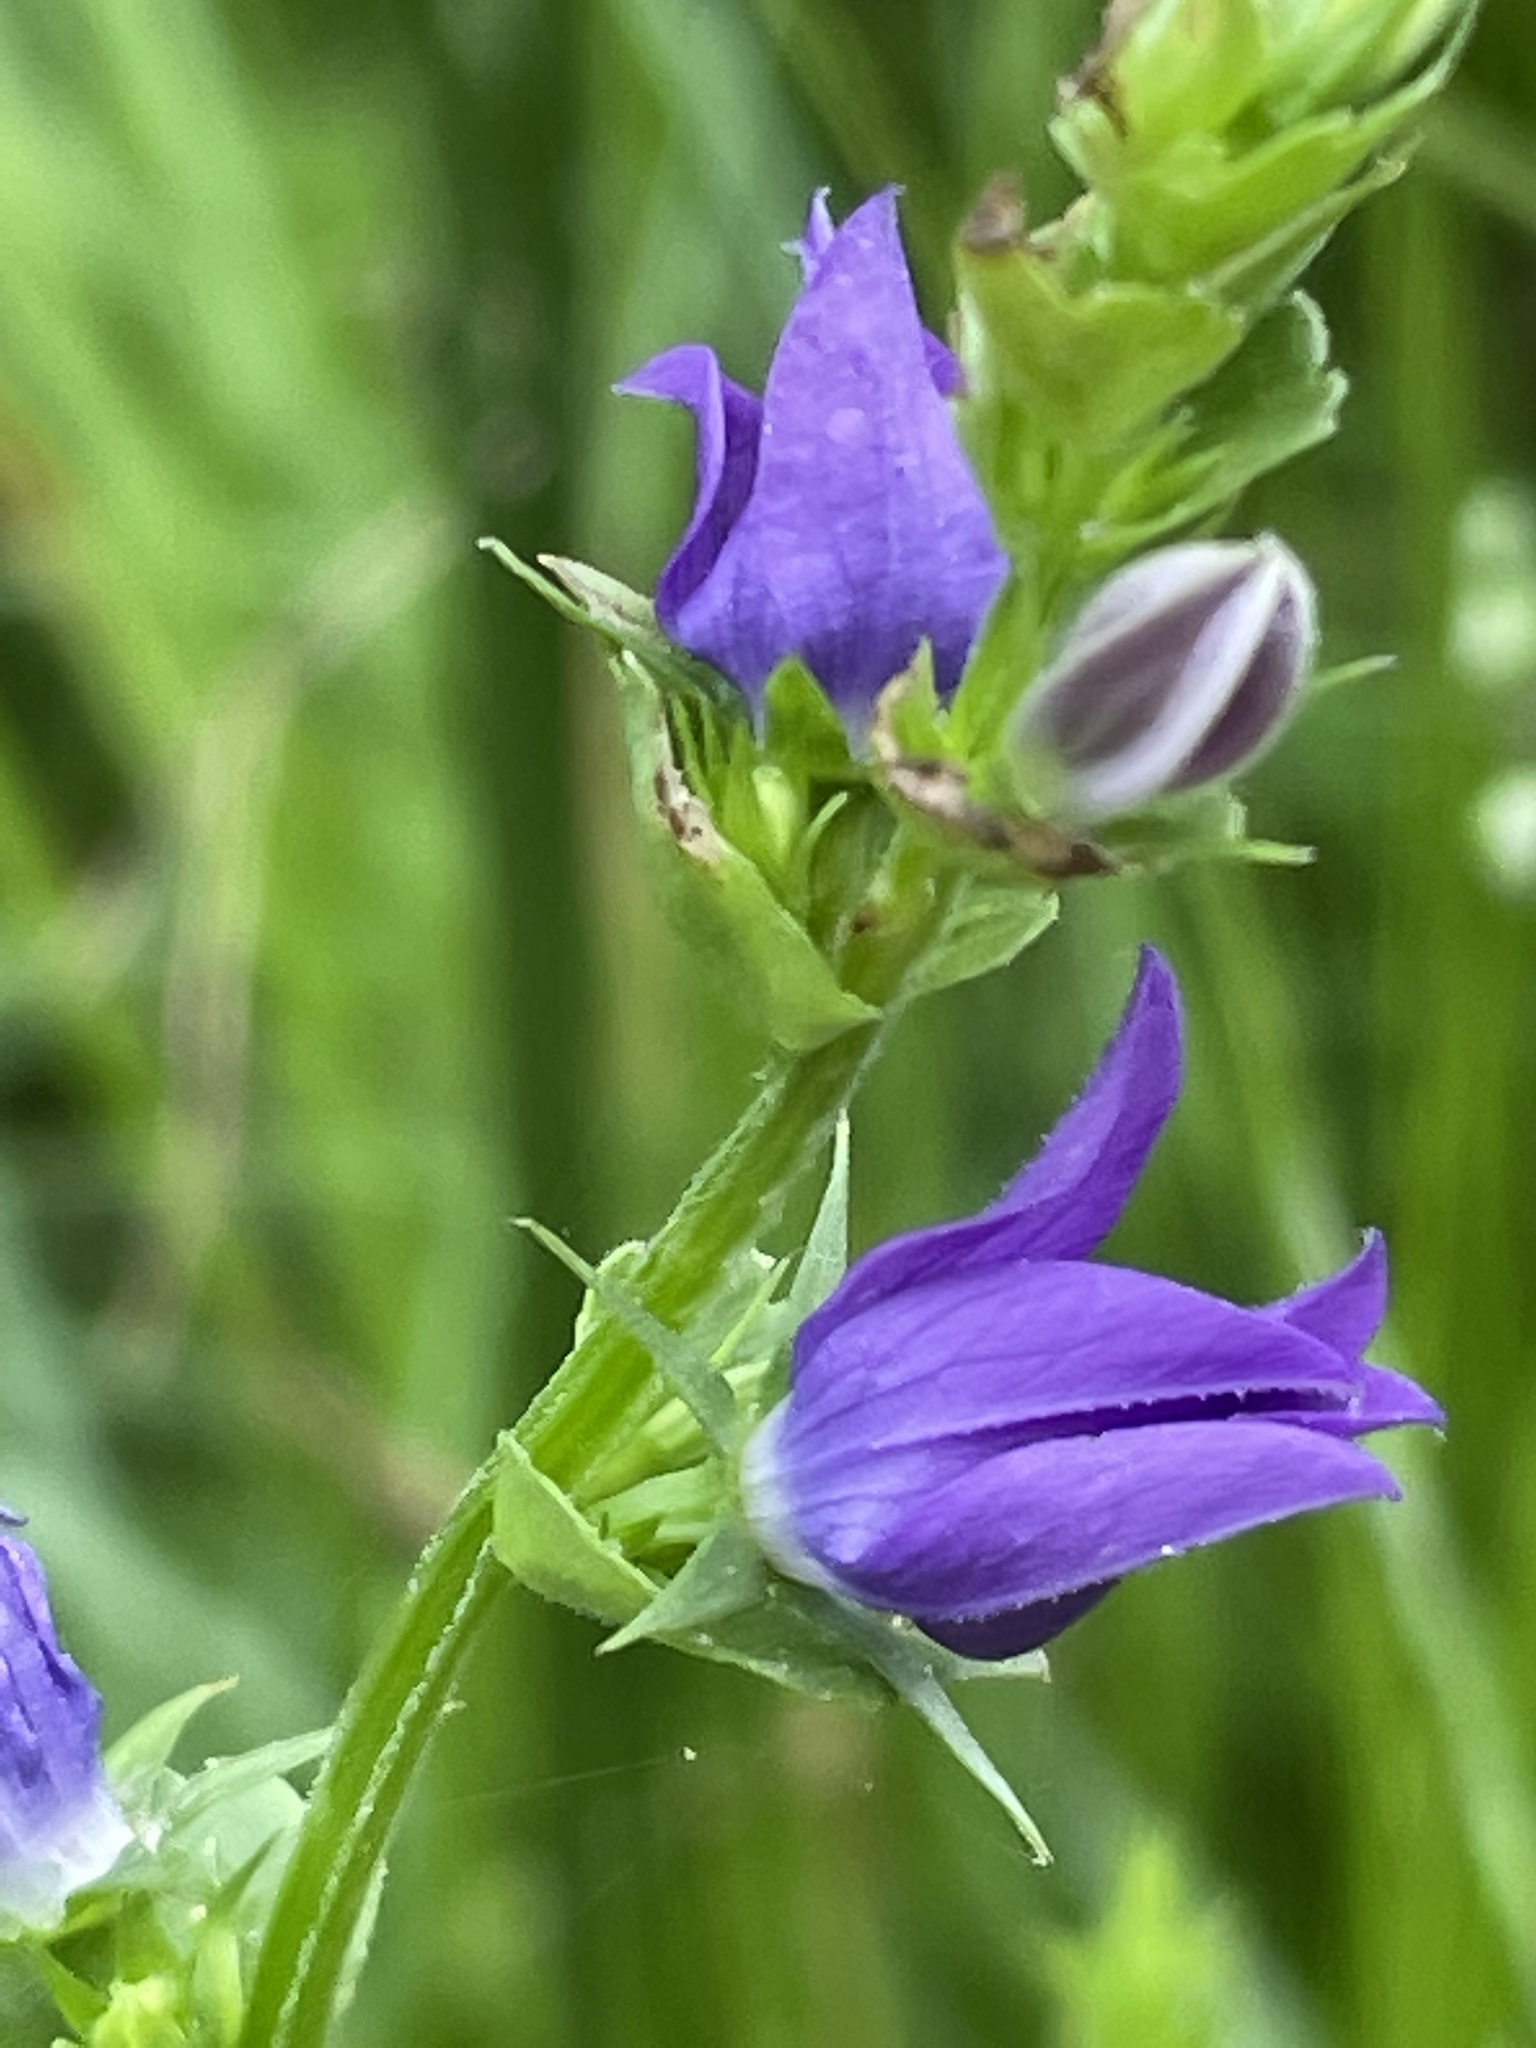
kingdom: Plantae
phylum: Tracheophyta
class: Magnoliopsida
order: Asterales
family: Campanulaceae
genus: Triodanis
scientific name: Triodanis perfoliata
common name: Clasping venus' looking-glass
